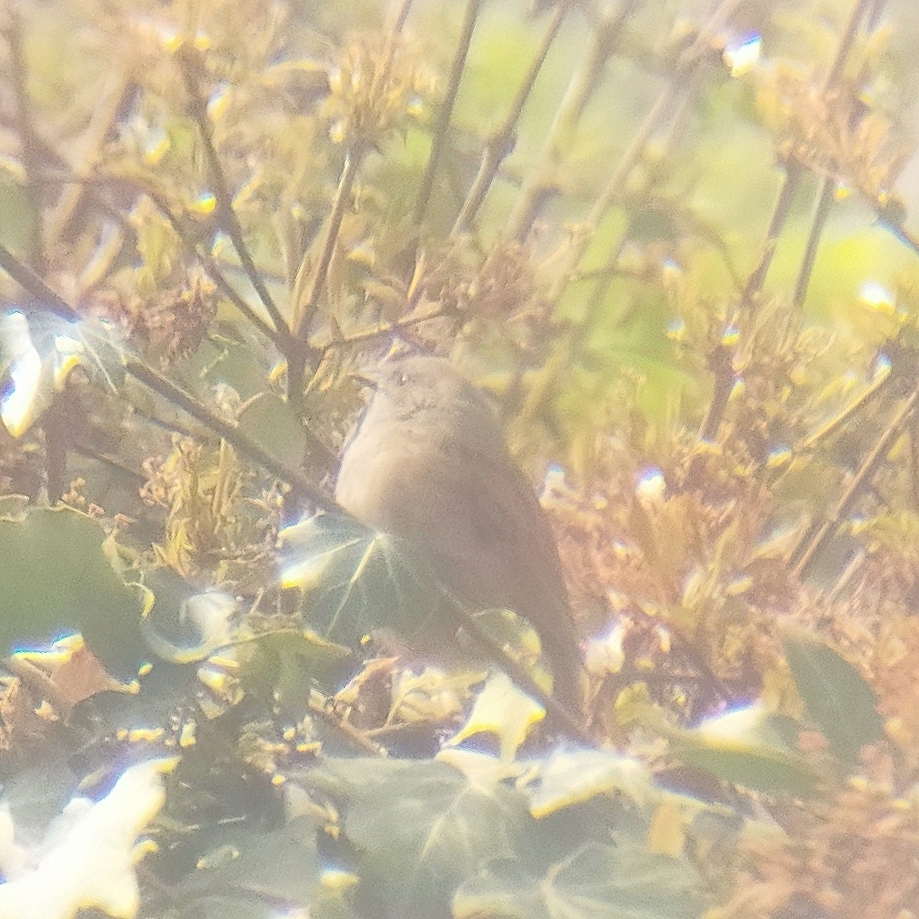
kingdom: Animalia
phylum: Chordata
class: Aves
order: Passeriformes
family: Prunellidae
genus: Prunella
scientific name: Prunella modularis
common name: Dunnock
